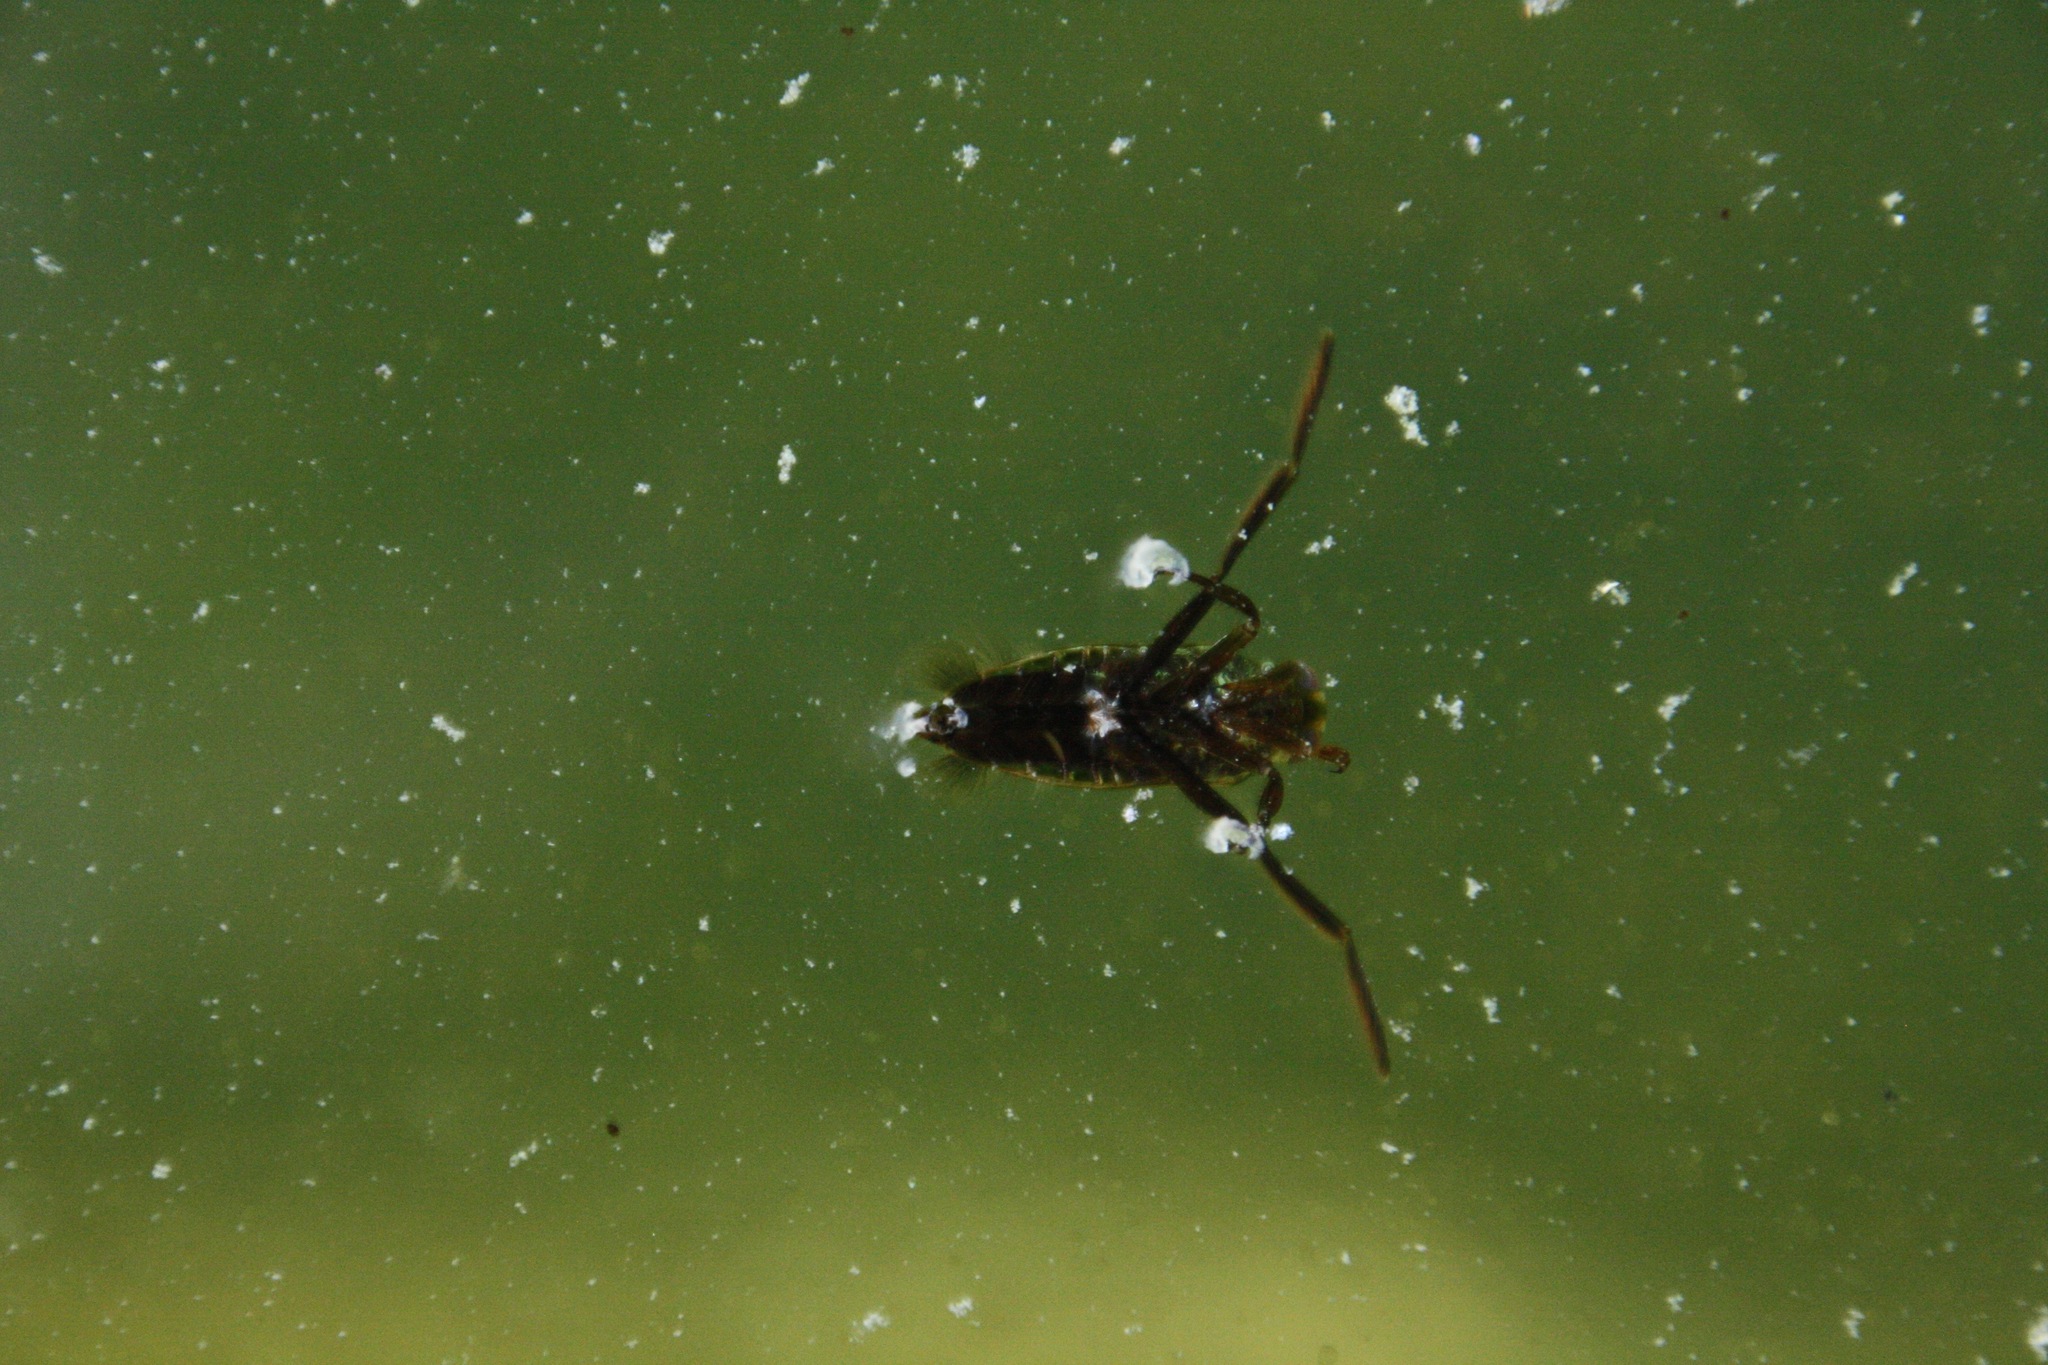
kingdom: Animalia
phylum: Arthropoda
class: Insecta
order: Hemiptera
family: Notonectidae
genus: Notonecta
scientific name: Notonecta glauca
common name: Common water-boatman
